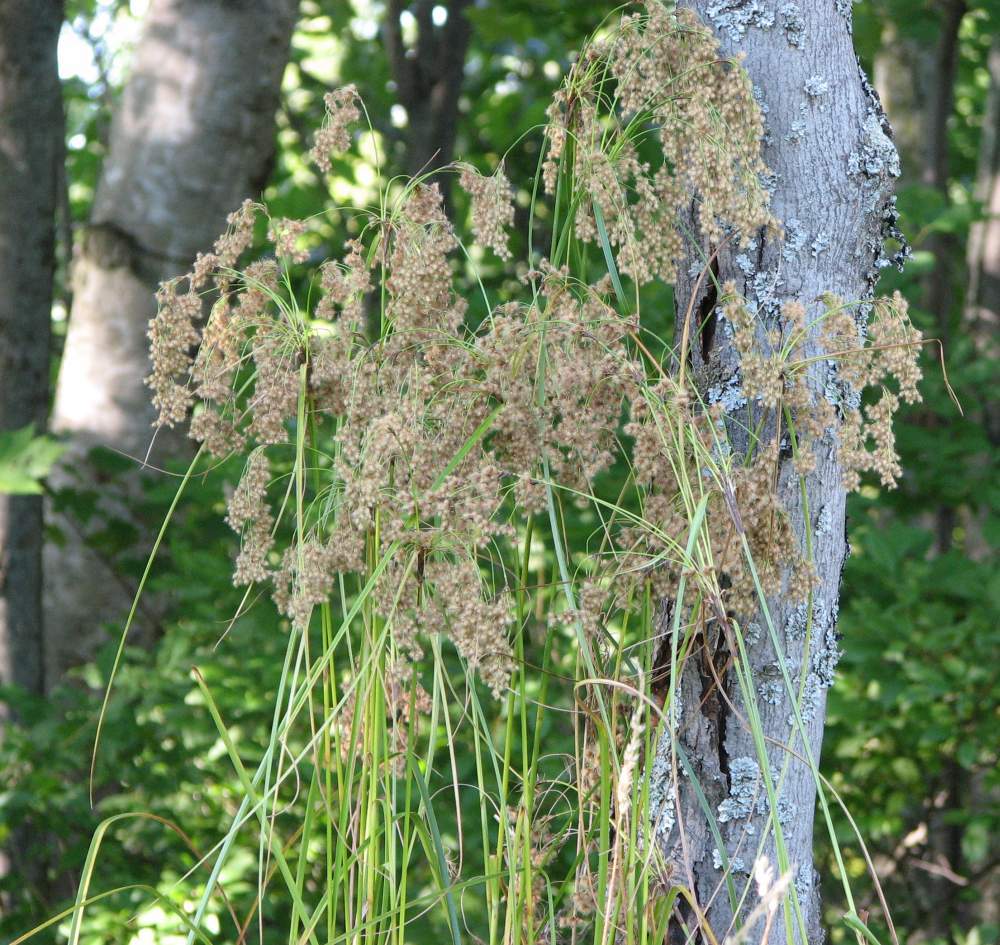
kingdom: Plantae
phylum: Tracheophyta
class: Liliopsida
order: Poales
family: Cyperaceae
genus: Scirpus
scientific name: Scirpus cyperinus
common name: Black-sheathed bulrush
